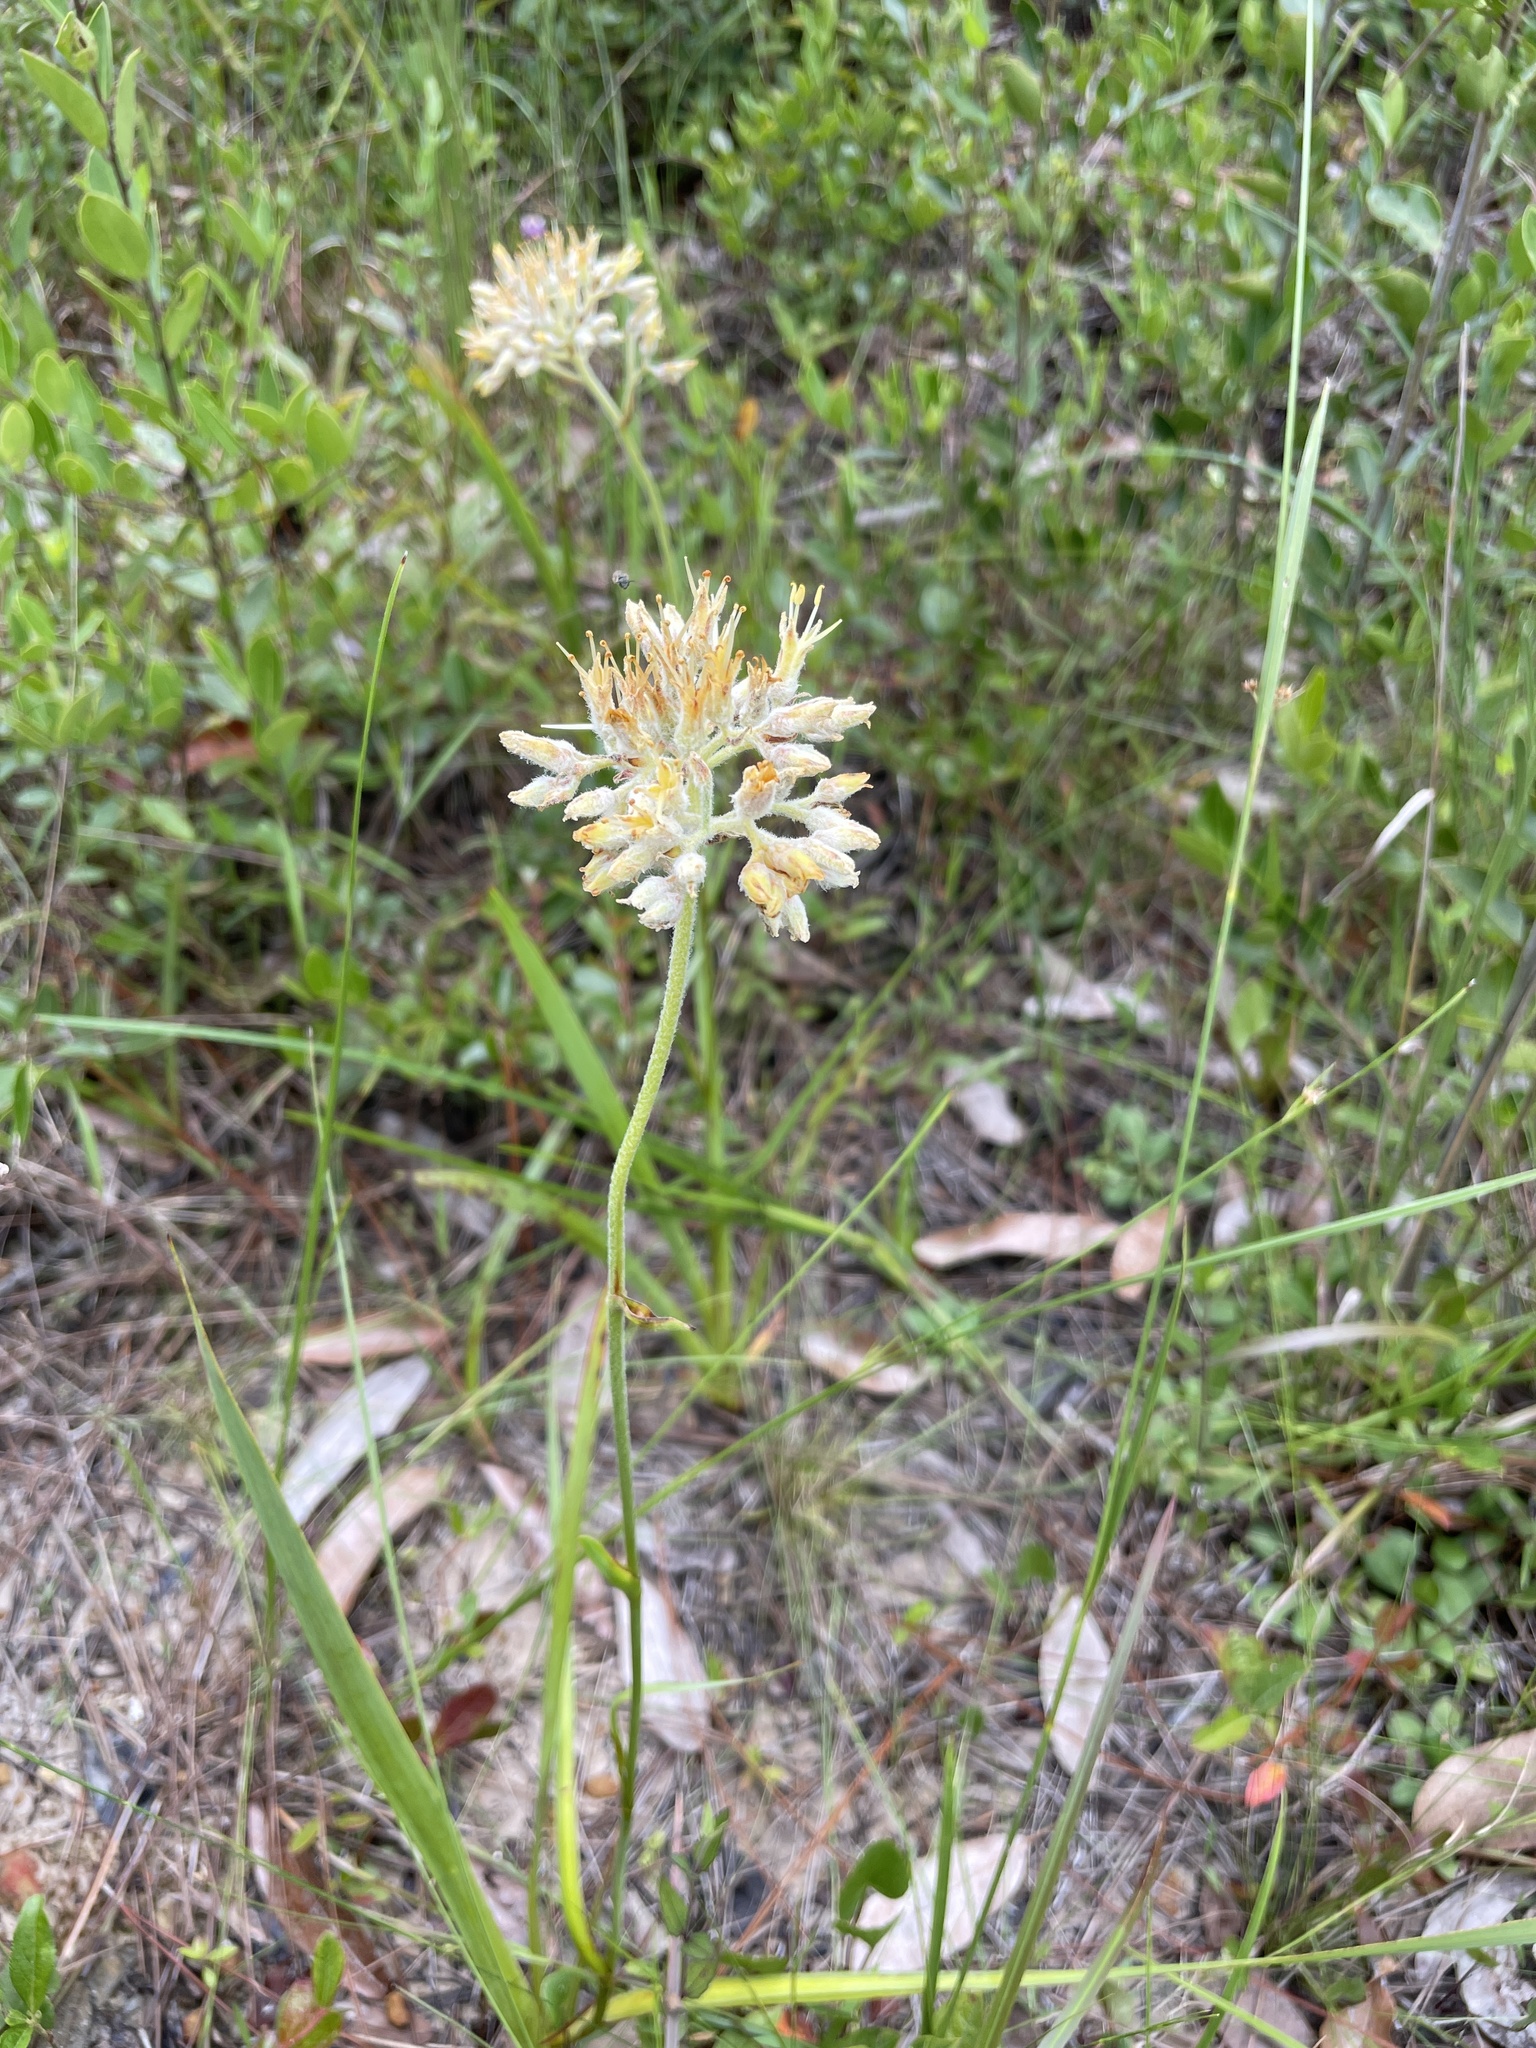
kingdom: Plantae
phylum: Tracheophyta
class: Liliopsida
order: Commelinales
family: Haemodoraceae
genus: Lachnanthes
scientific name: Lachnanthes caroliana
